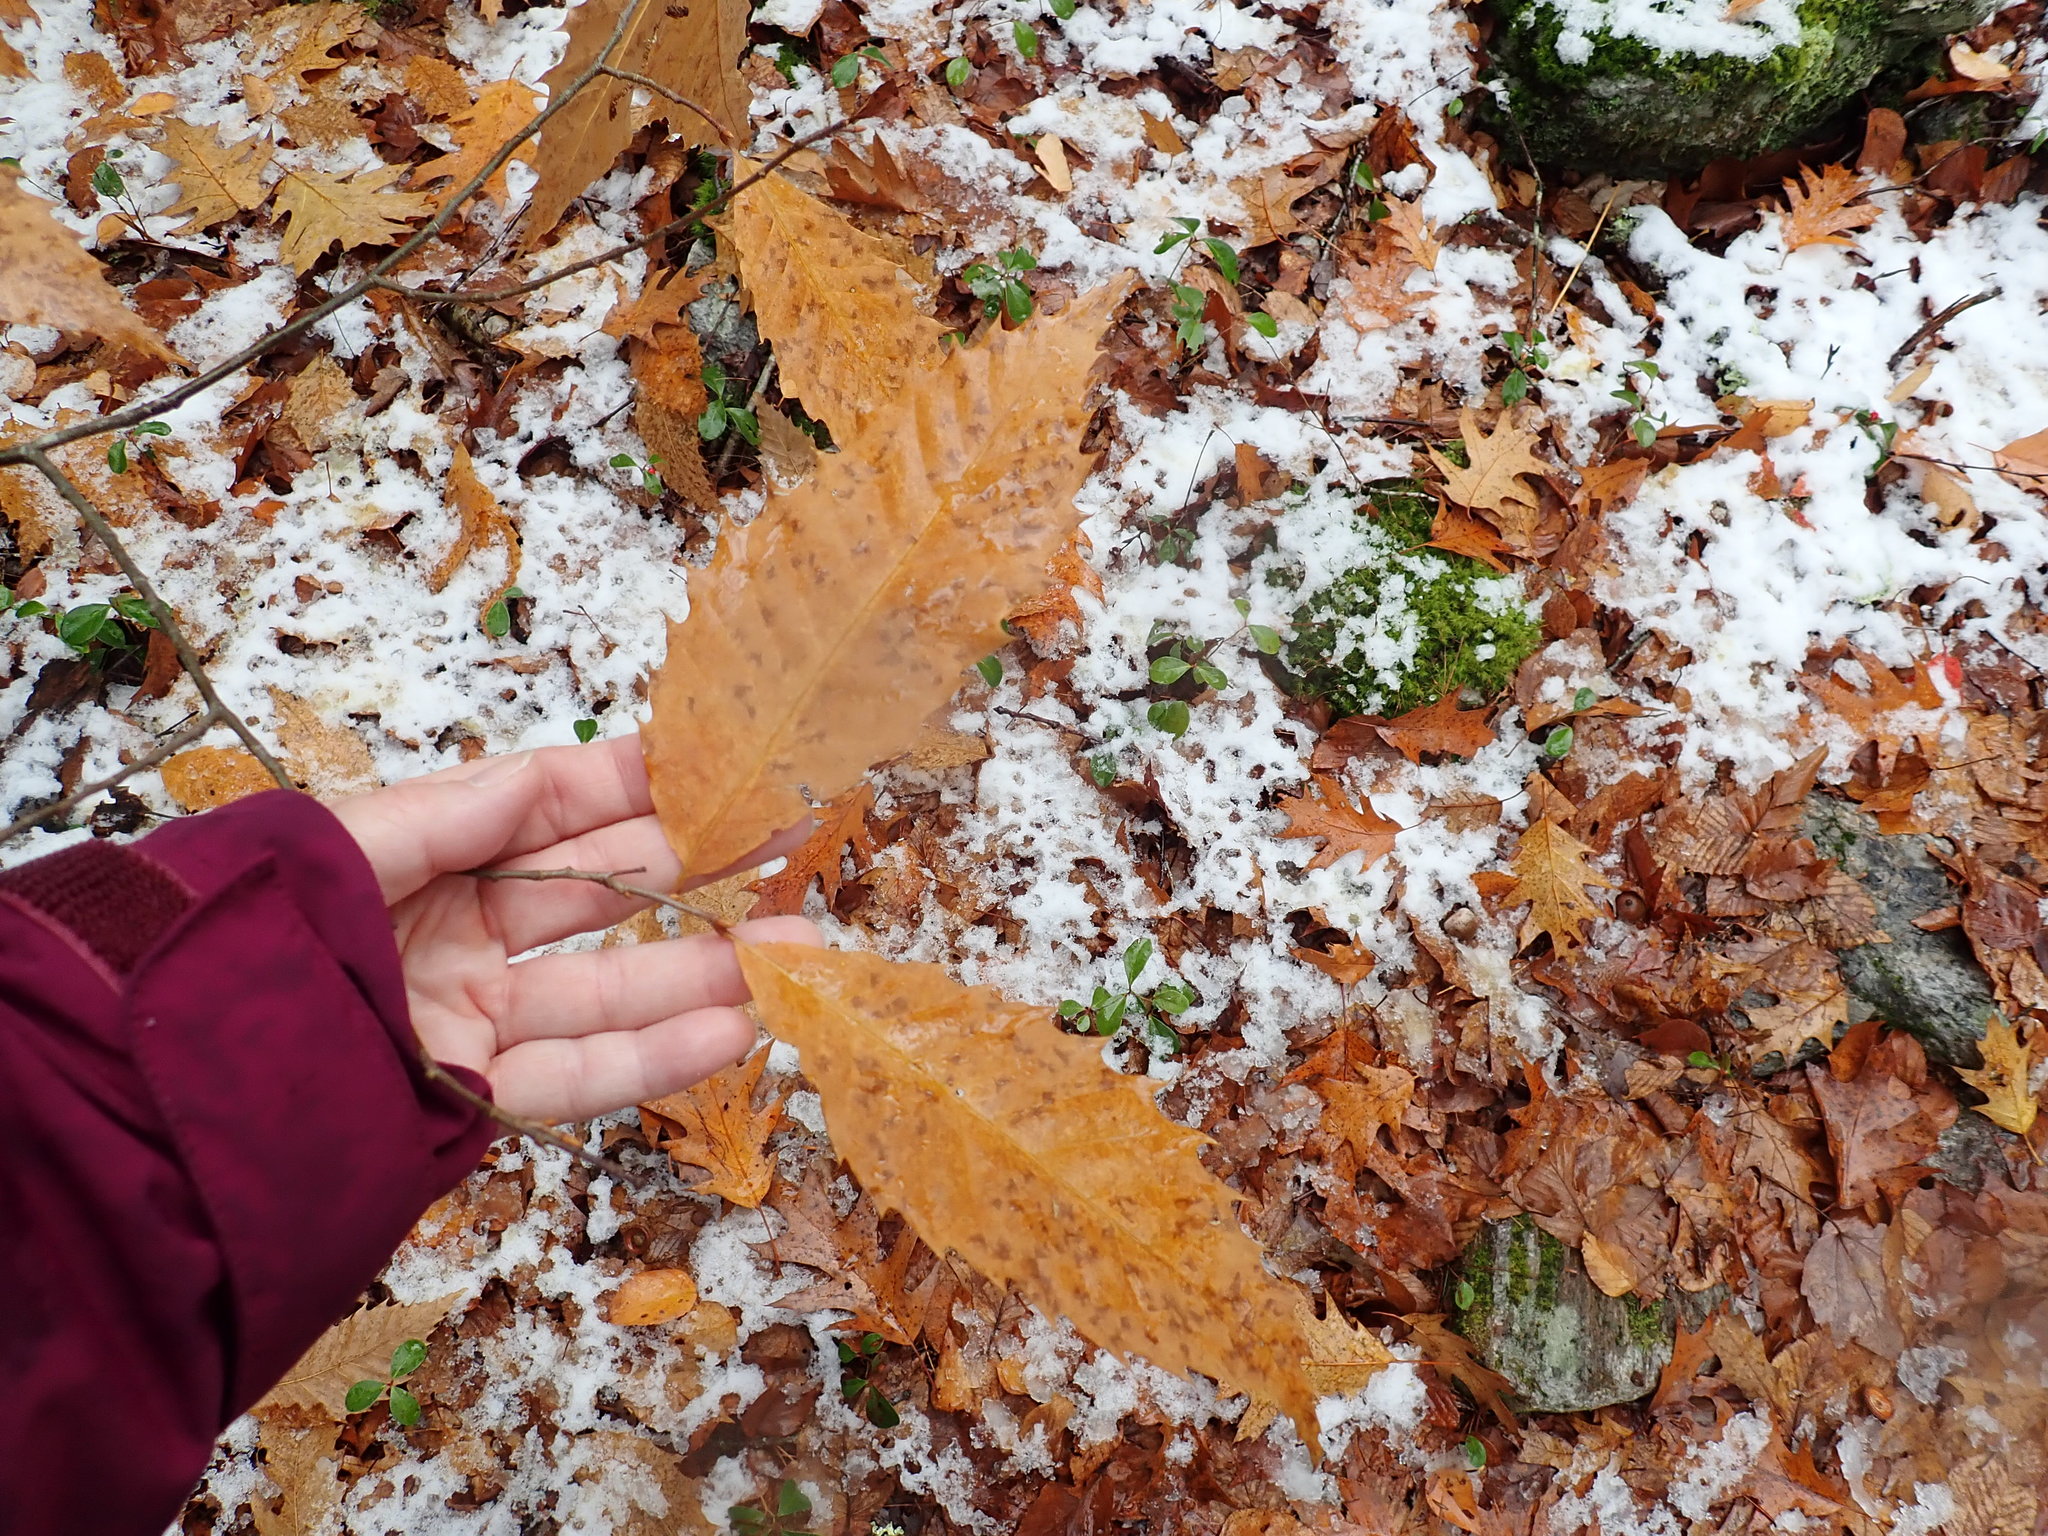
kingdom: Plantae
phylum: Tracheophyta
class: Magnoliopsida
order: Fagales
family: Fagaceae
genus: Castanea
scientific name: Castanea dentata
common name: American chestnut
